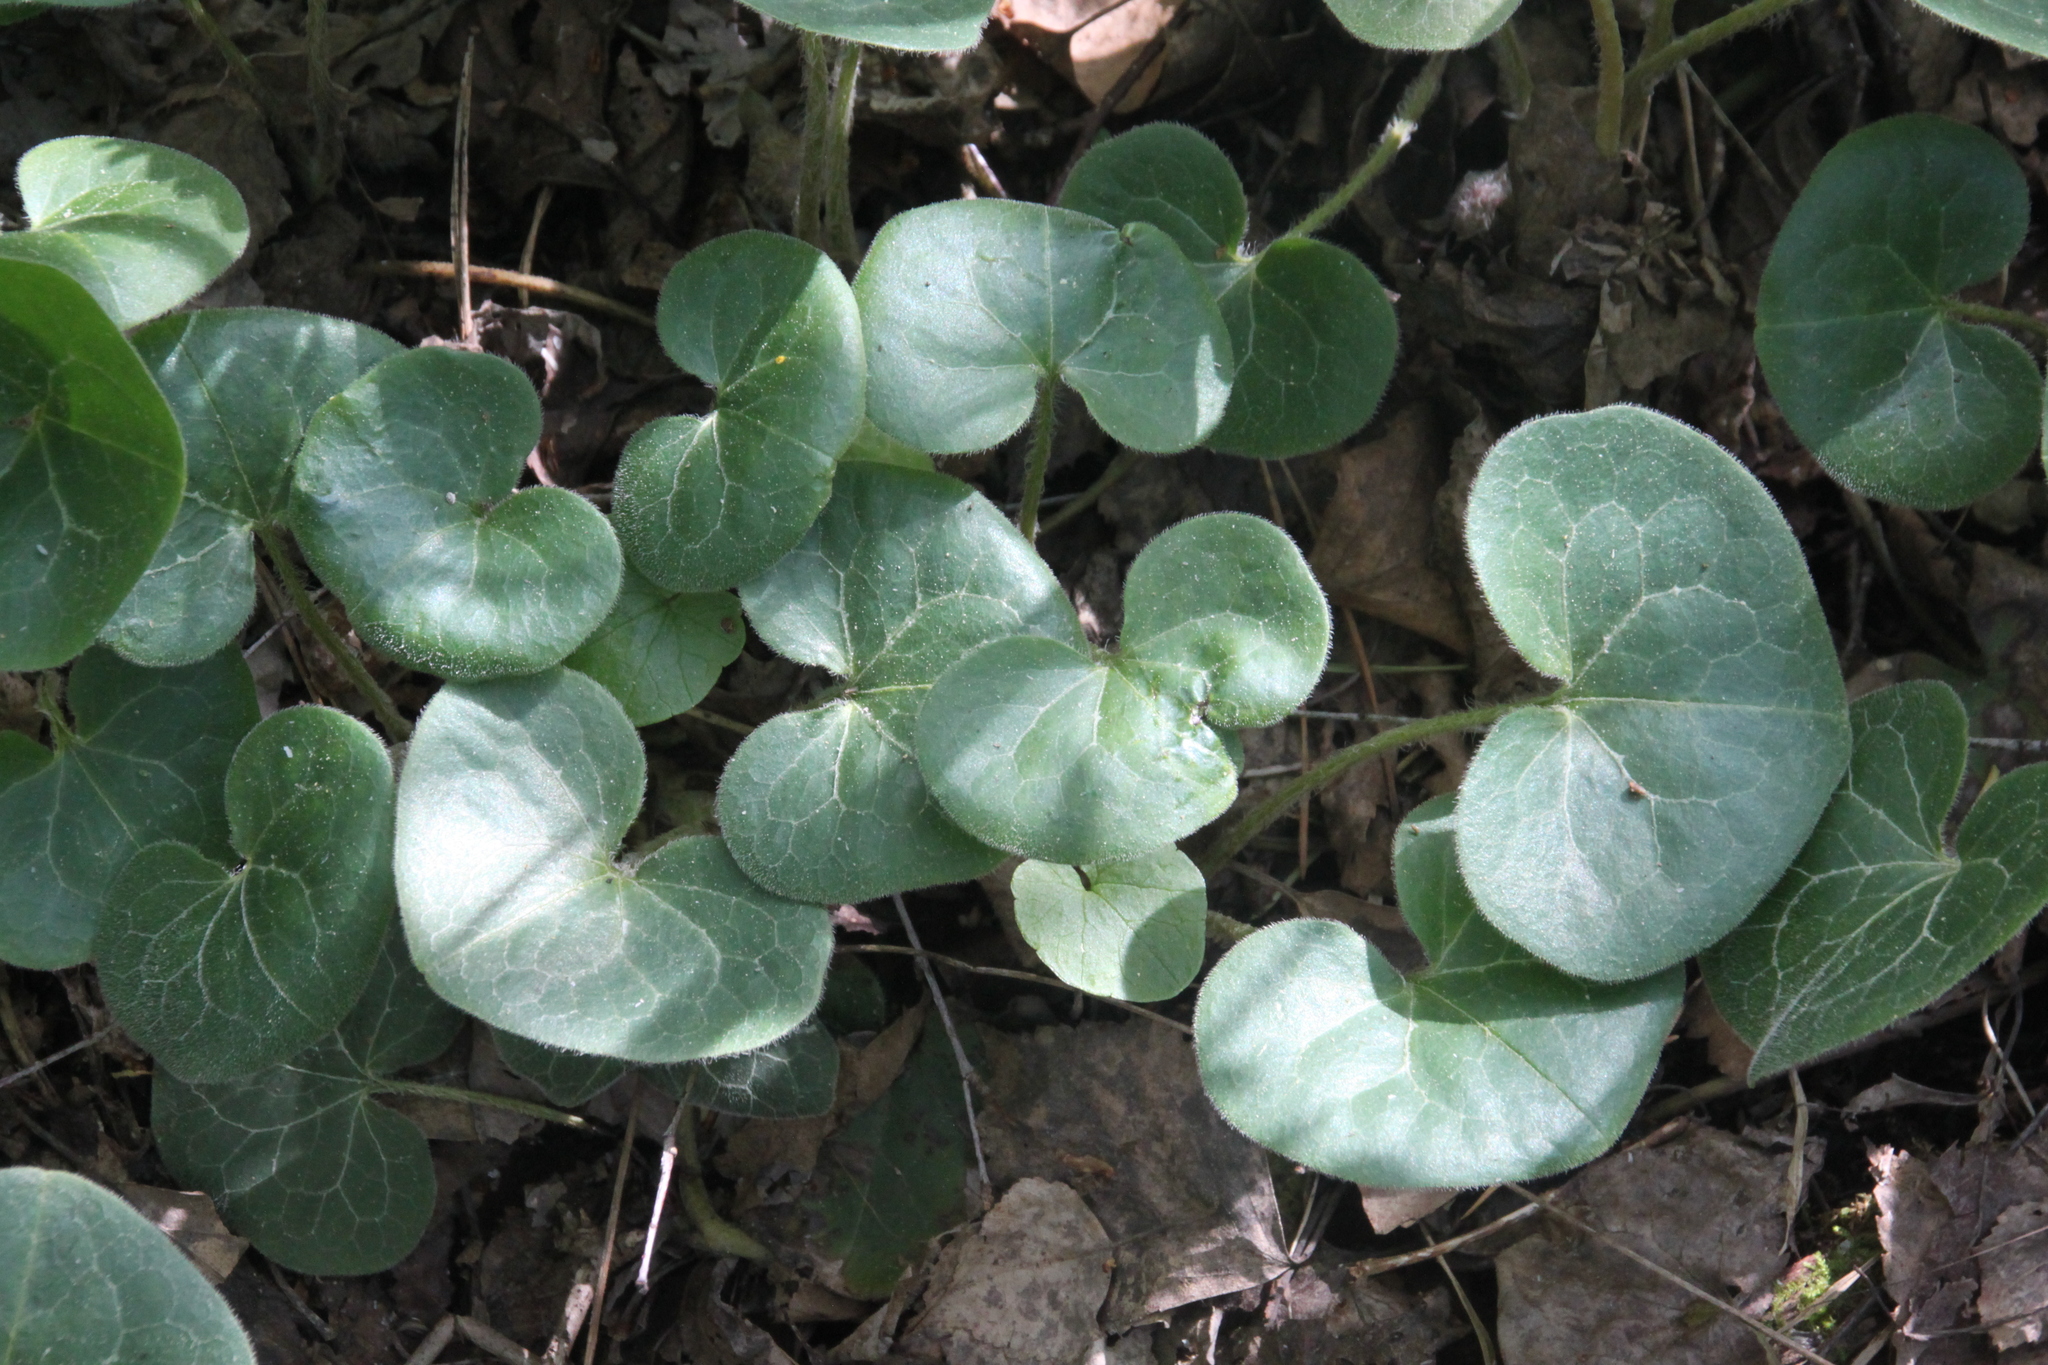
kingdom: Plantae
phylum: Tracheophyta
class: Magnoliopsida
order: Piperales
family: Aristolochiaceae
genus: Asarum
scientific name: Asarum europaeum
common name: Asarabacca
